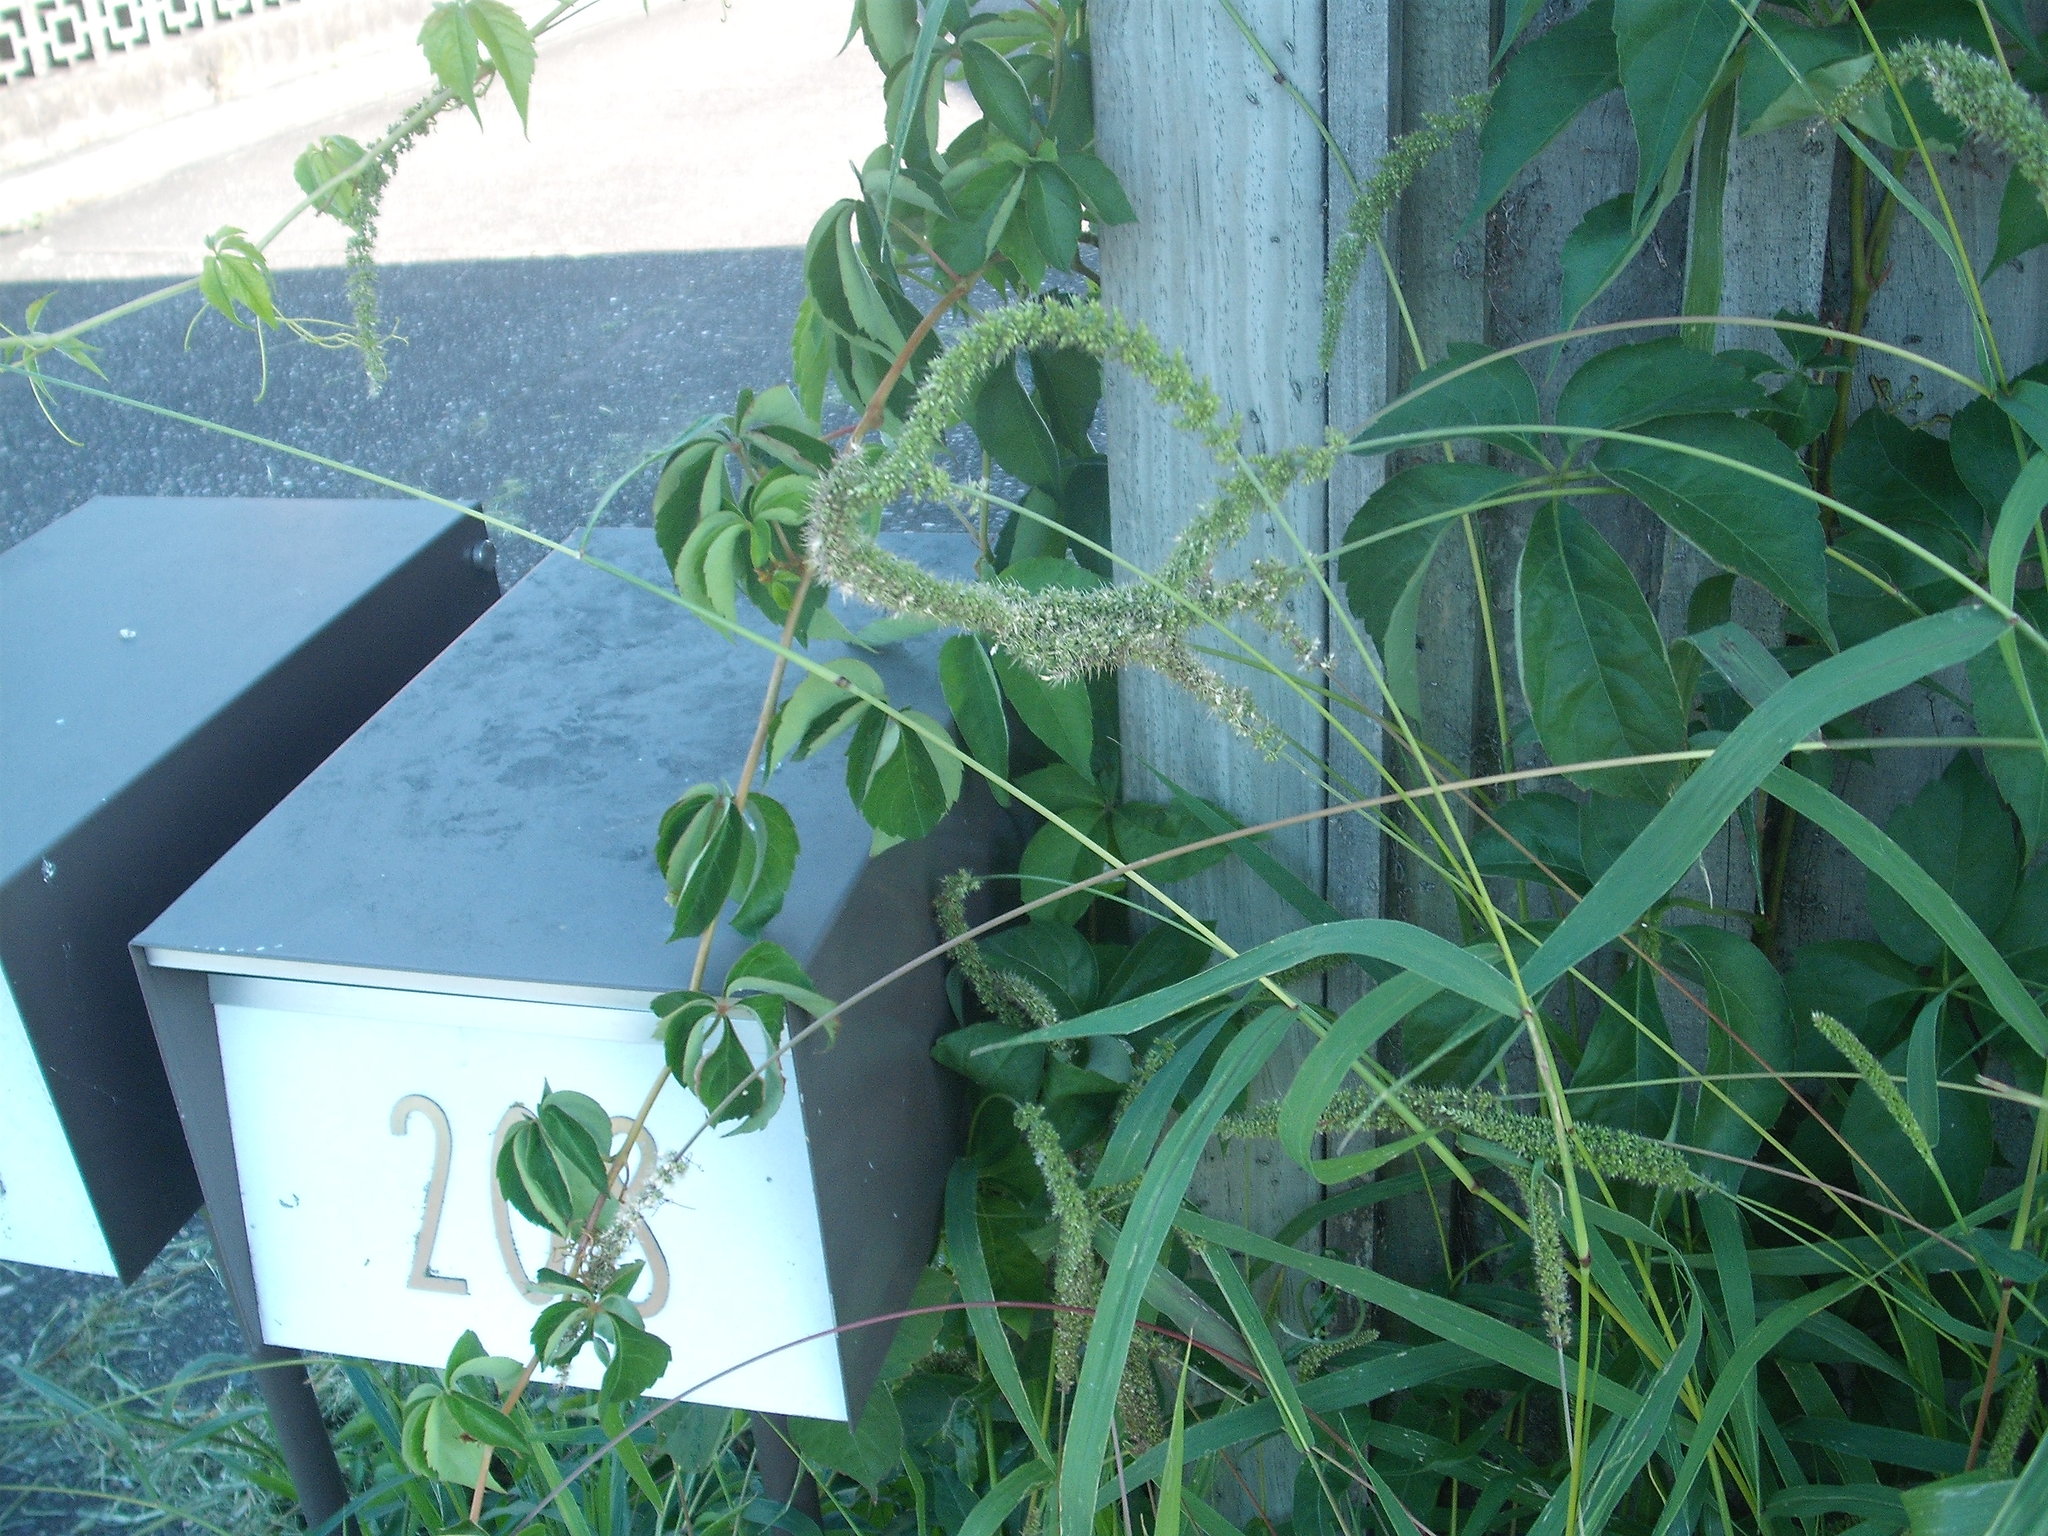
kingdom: Plantae
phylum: Tracheophyta
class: Liliopsida
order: Poales
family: Poaceae
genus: Setaria
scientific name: Setaria verticillata
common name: Hooked bristlegrass
